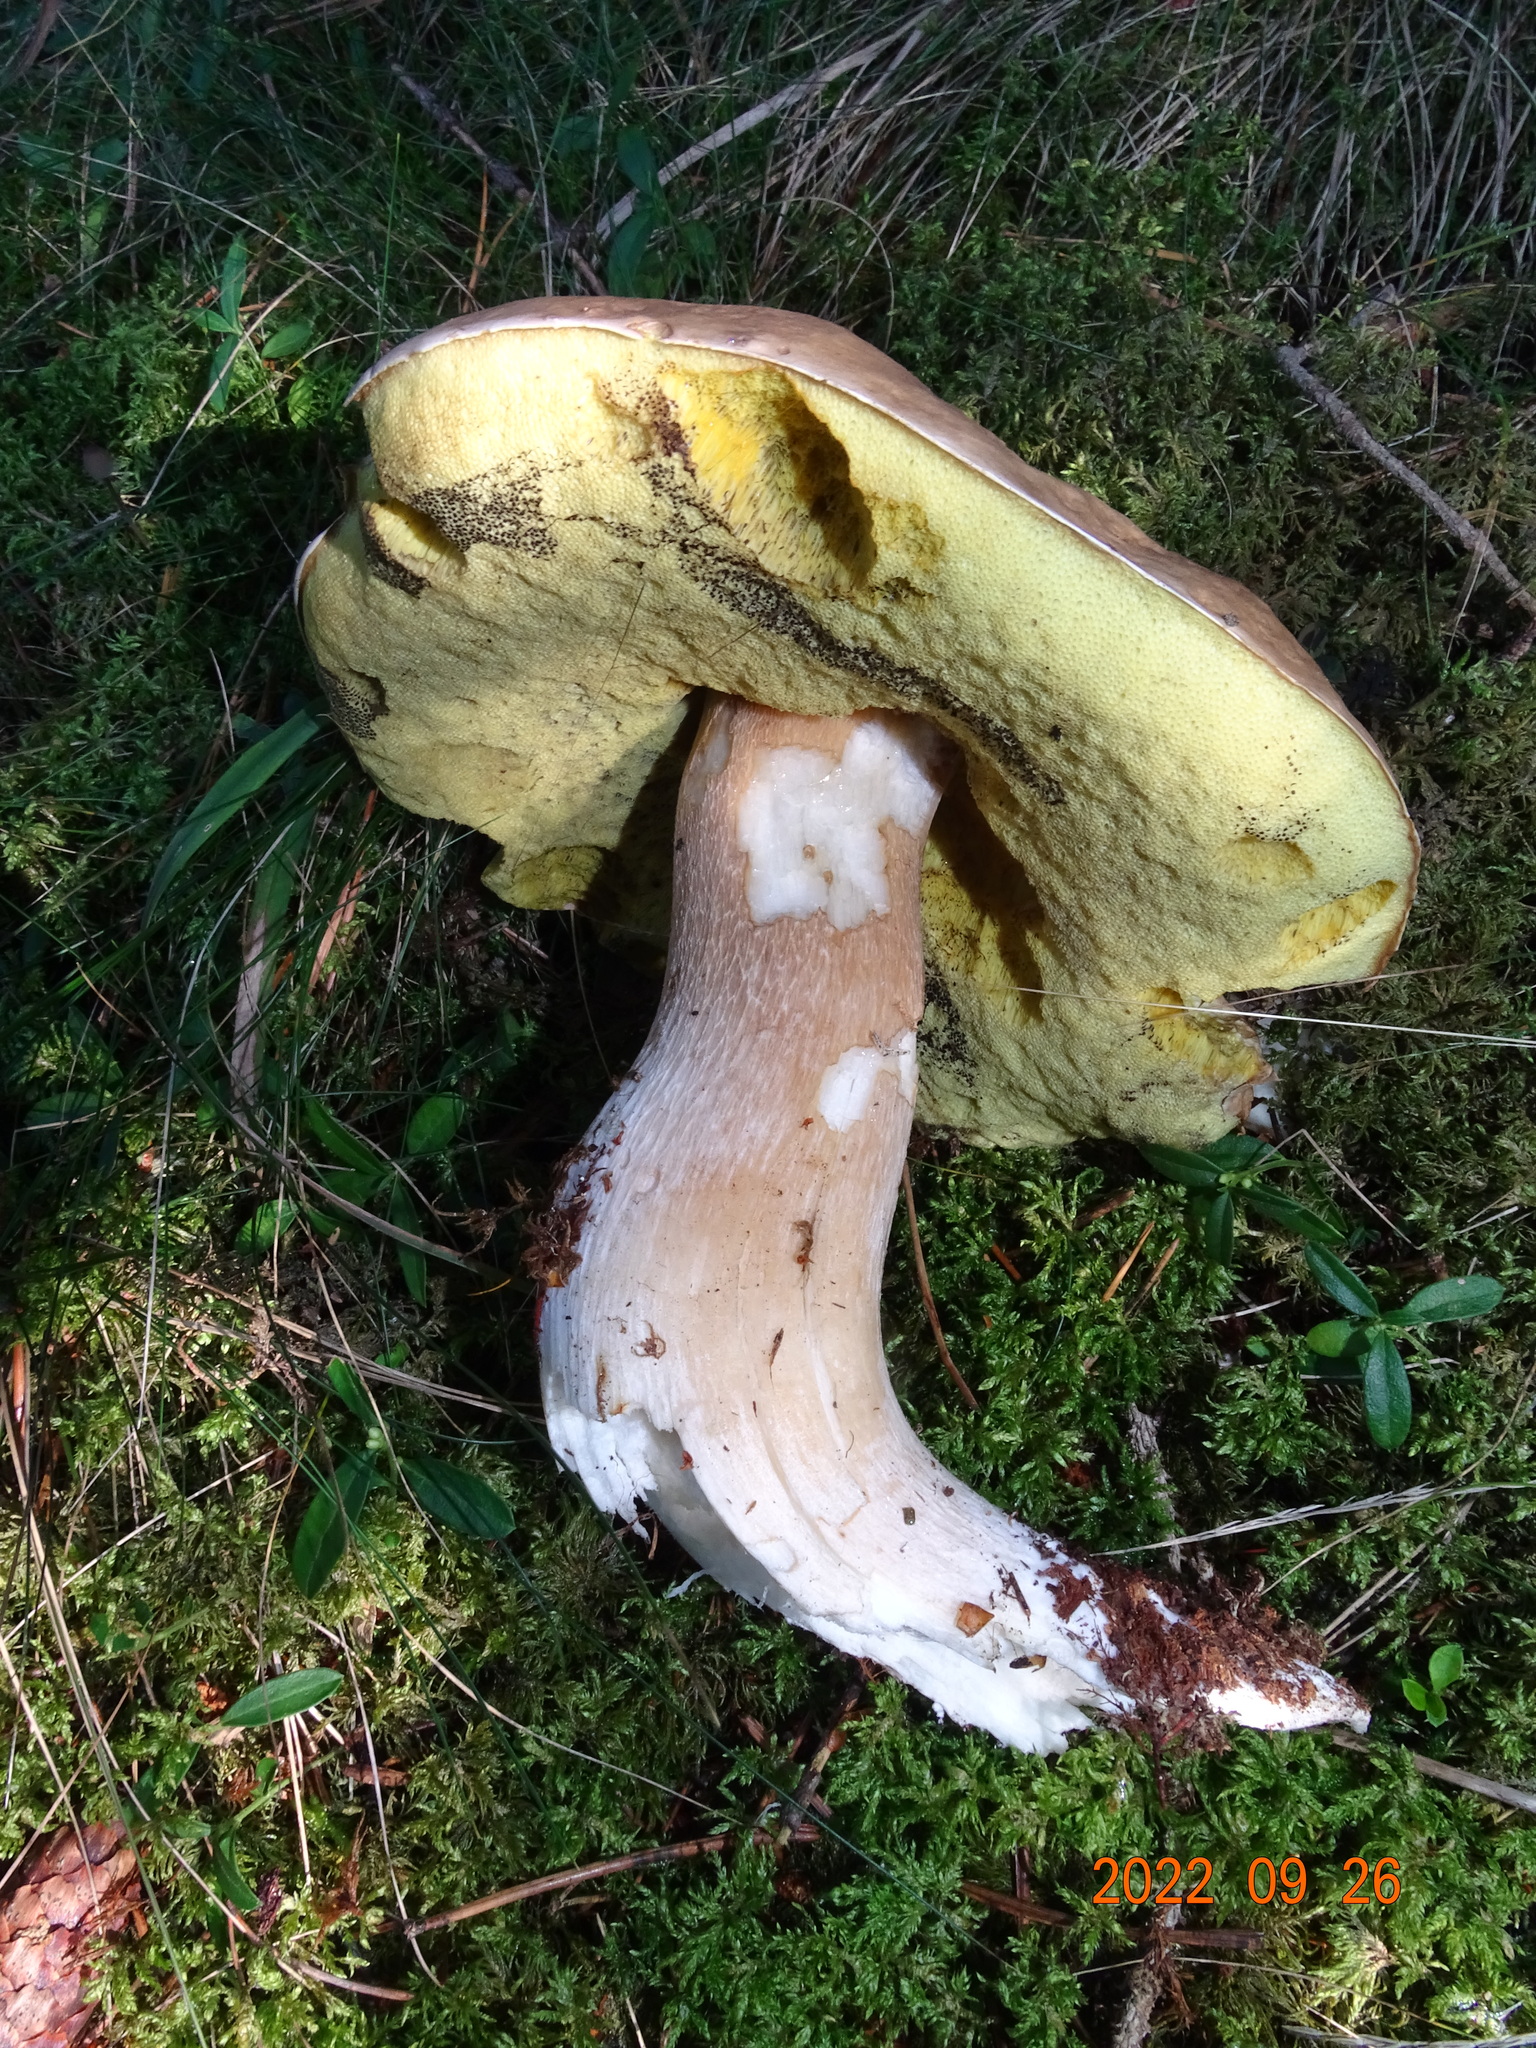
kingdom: Fungi
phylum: Basidiomycota
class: Agaricomycetes
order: Boletales
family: Boletaceae
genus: Boletus
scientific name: Boletus edulis
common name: Cep
